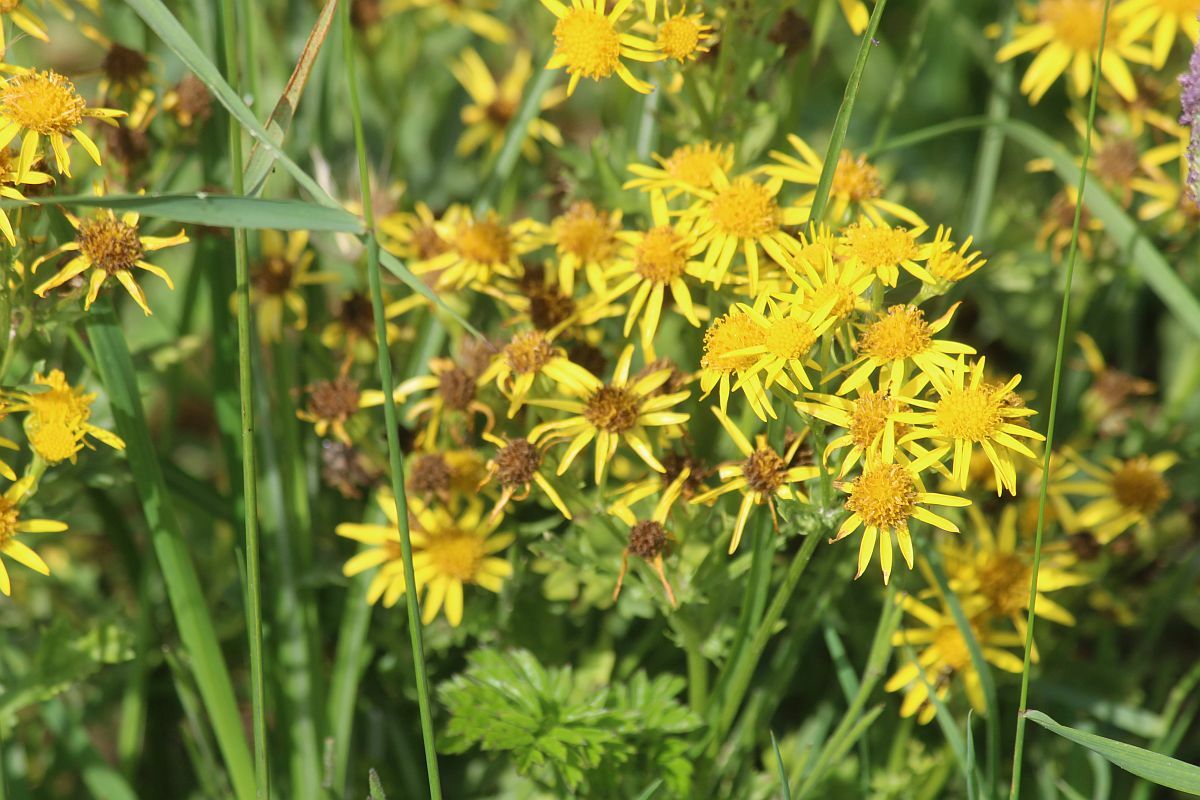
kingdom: Plantae
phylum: Tracheophyta
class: Magnoliopsida
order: Asterales
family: Asteraceae
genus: Jacobaea
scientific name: Jacobaea vulgaris
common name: Stinking willie
